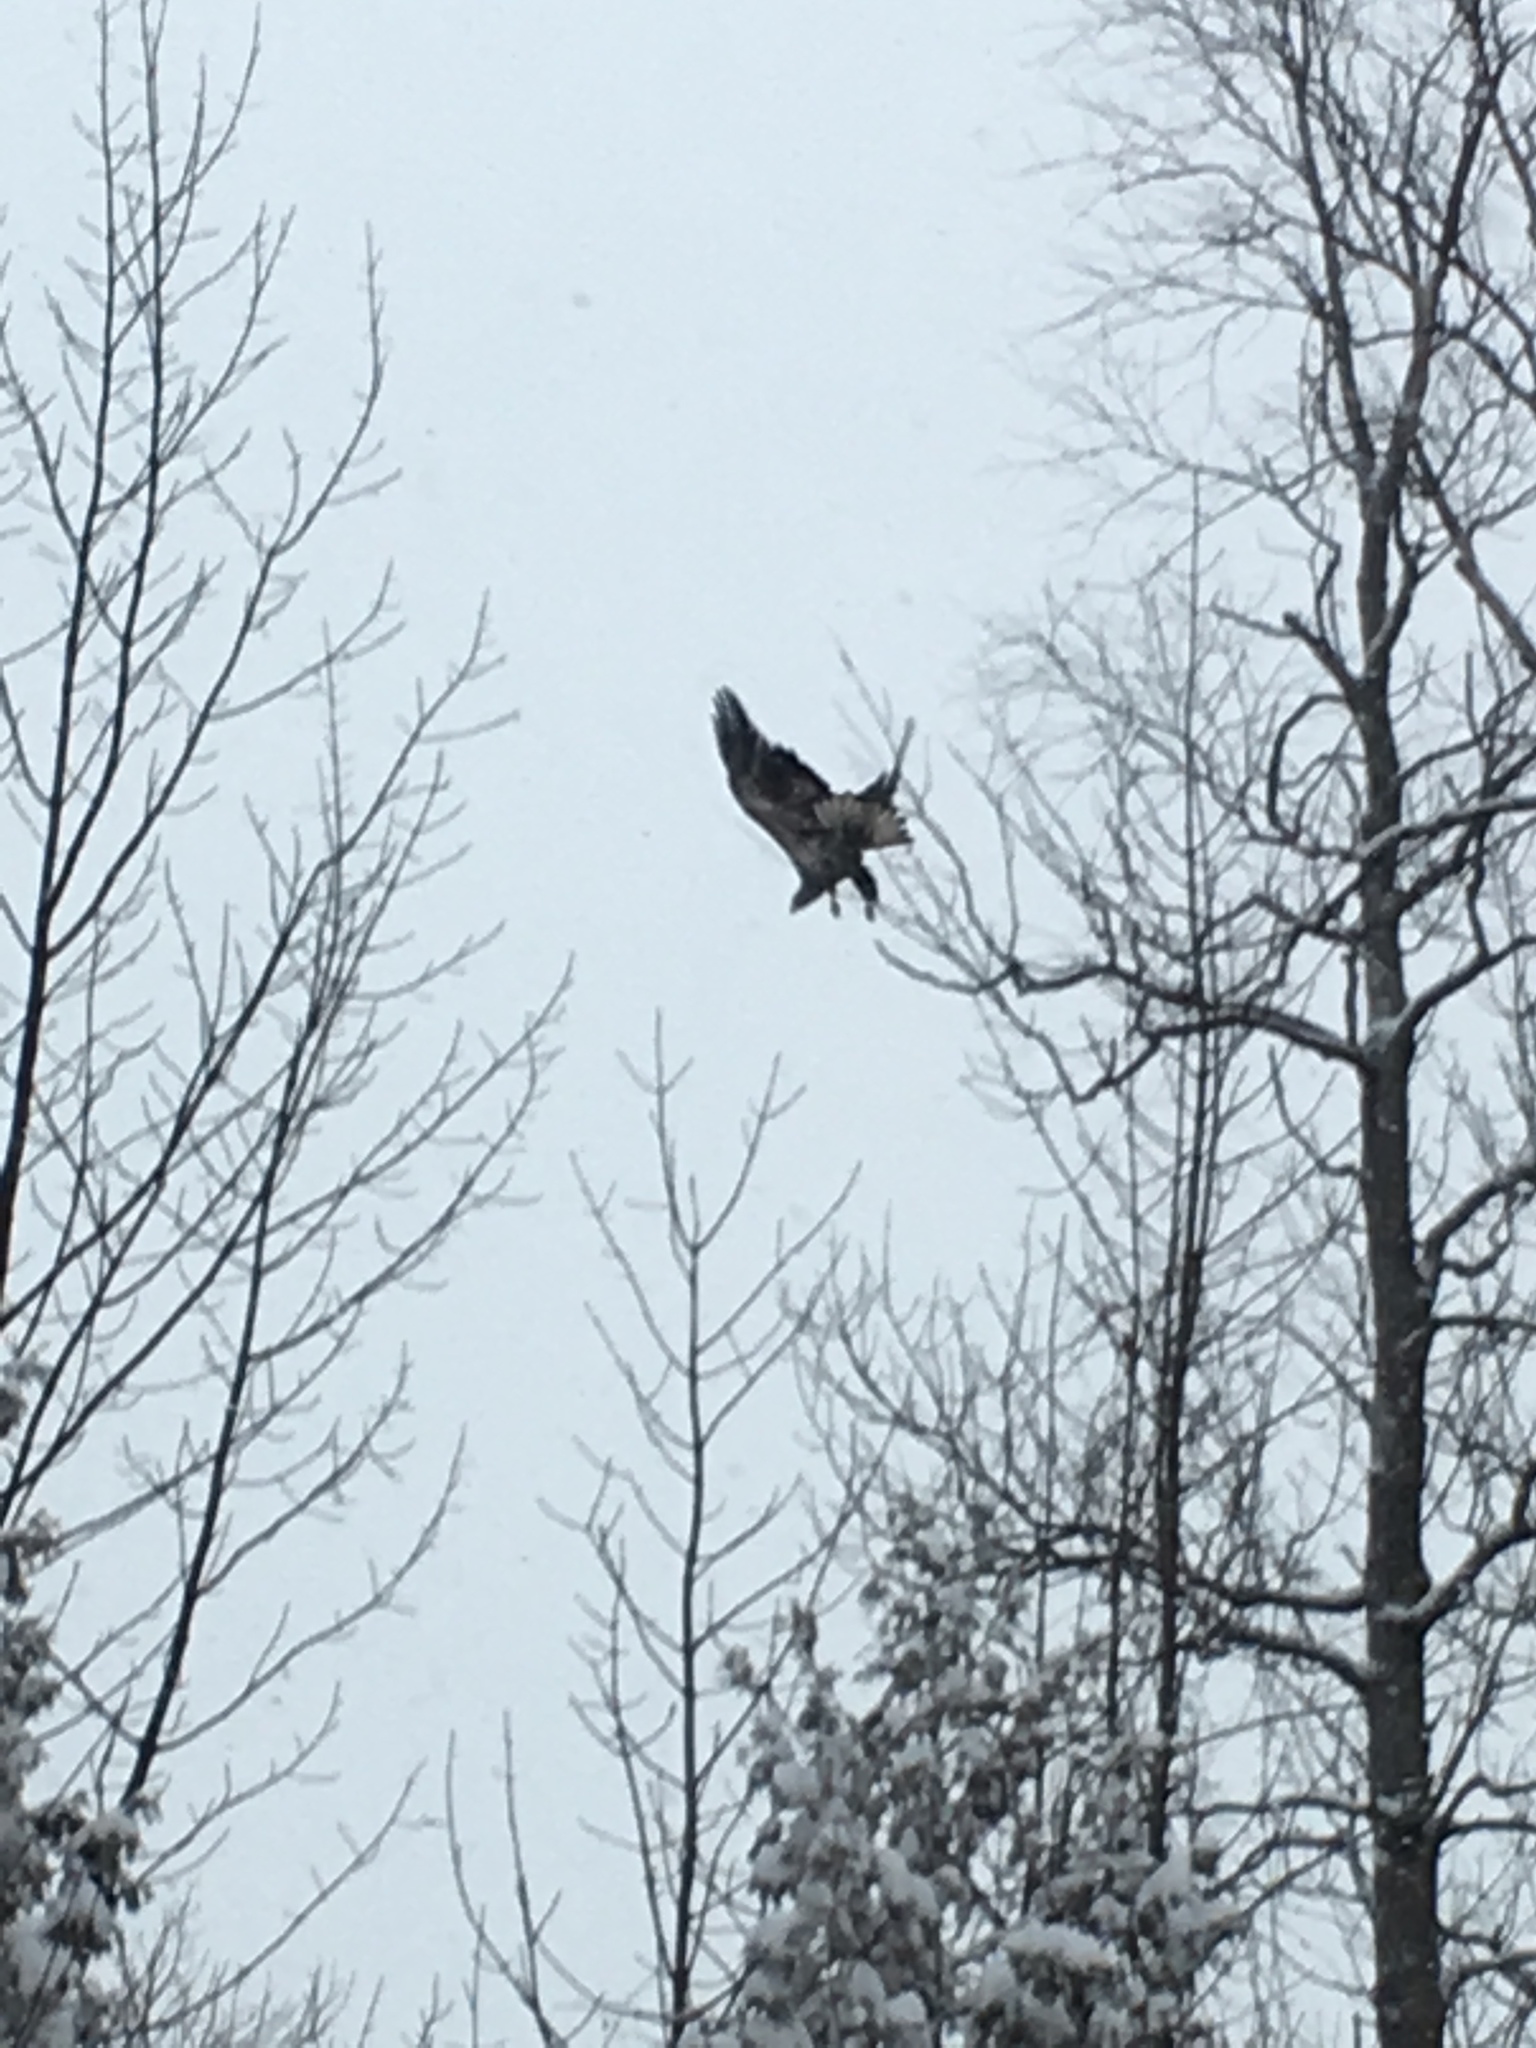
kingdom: Animalia
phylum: Chordata
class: Aves
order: Accipitriformes
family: Accipitridae
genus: Haliaeetus
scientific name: Haliaeetus leucocephalus
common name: Bald eagle
